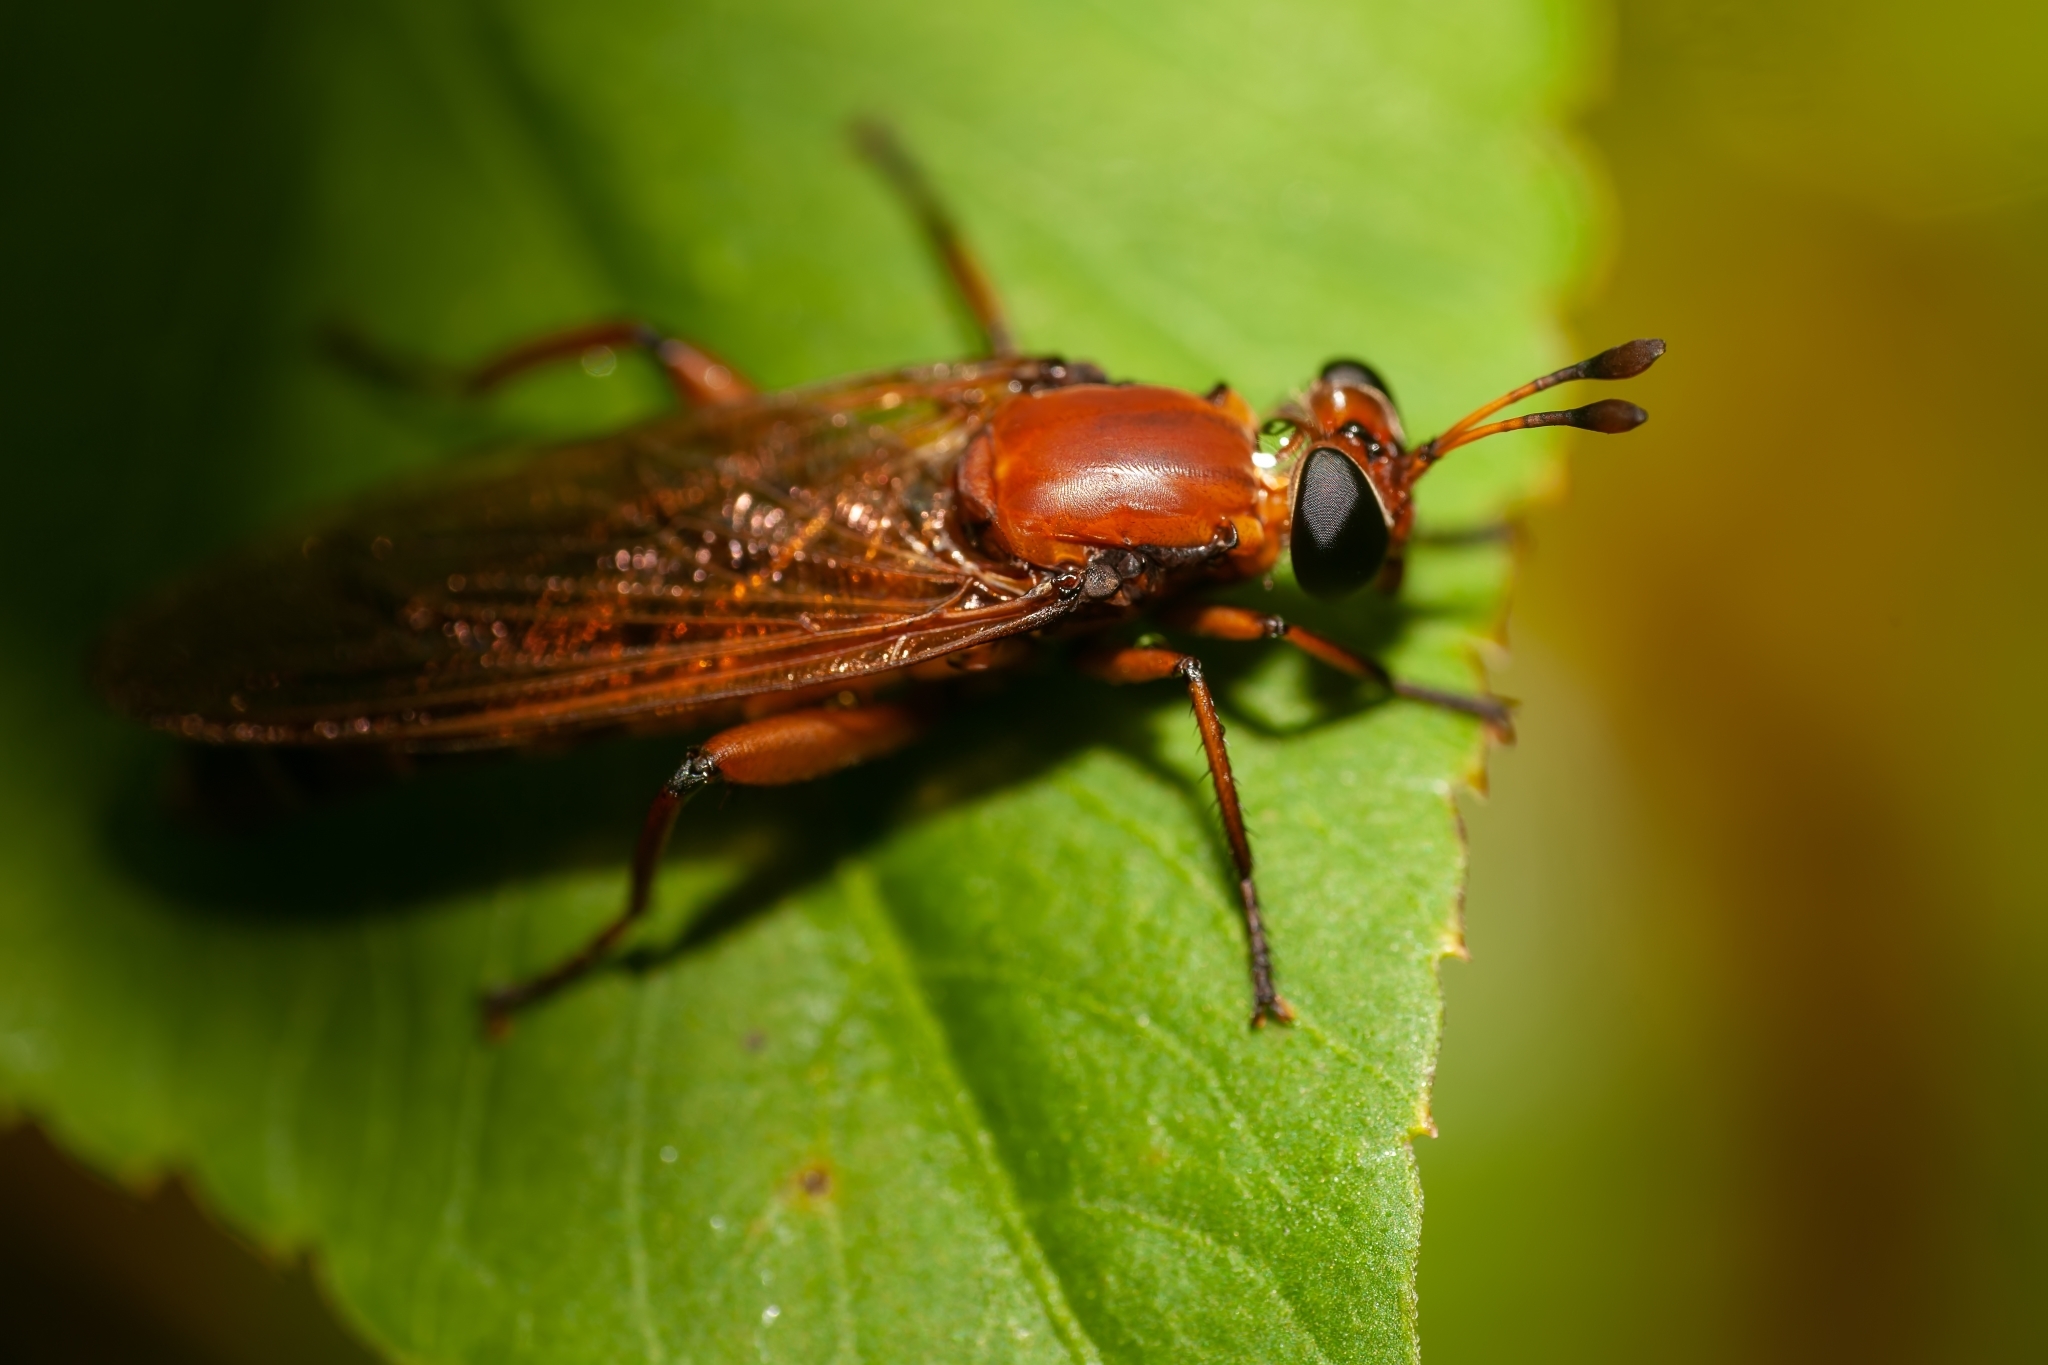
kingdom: Animalia
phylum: Arthropoda
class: Insecta
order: Diptera
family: Mydidae
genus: Mydas
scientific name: Mydas maculiventris
